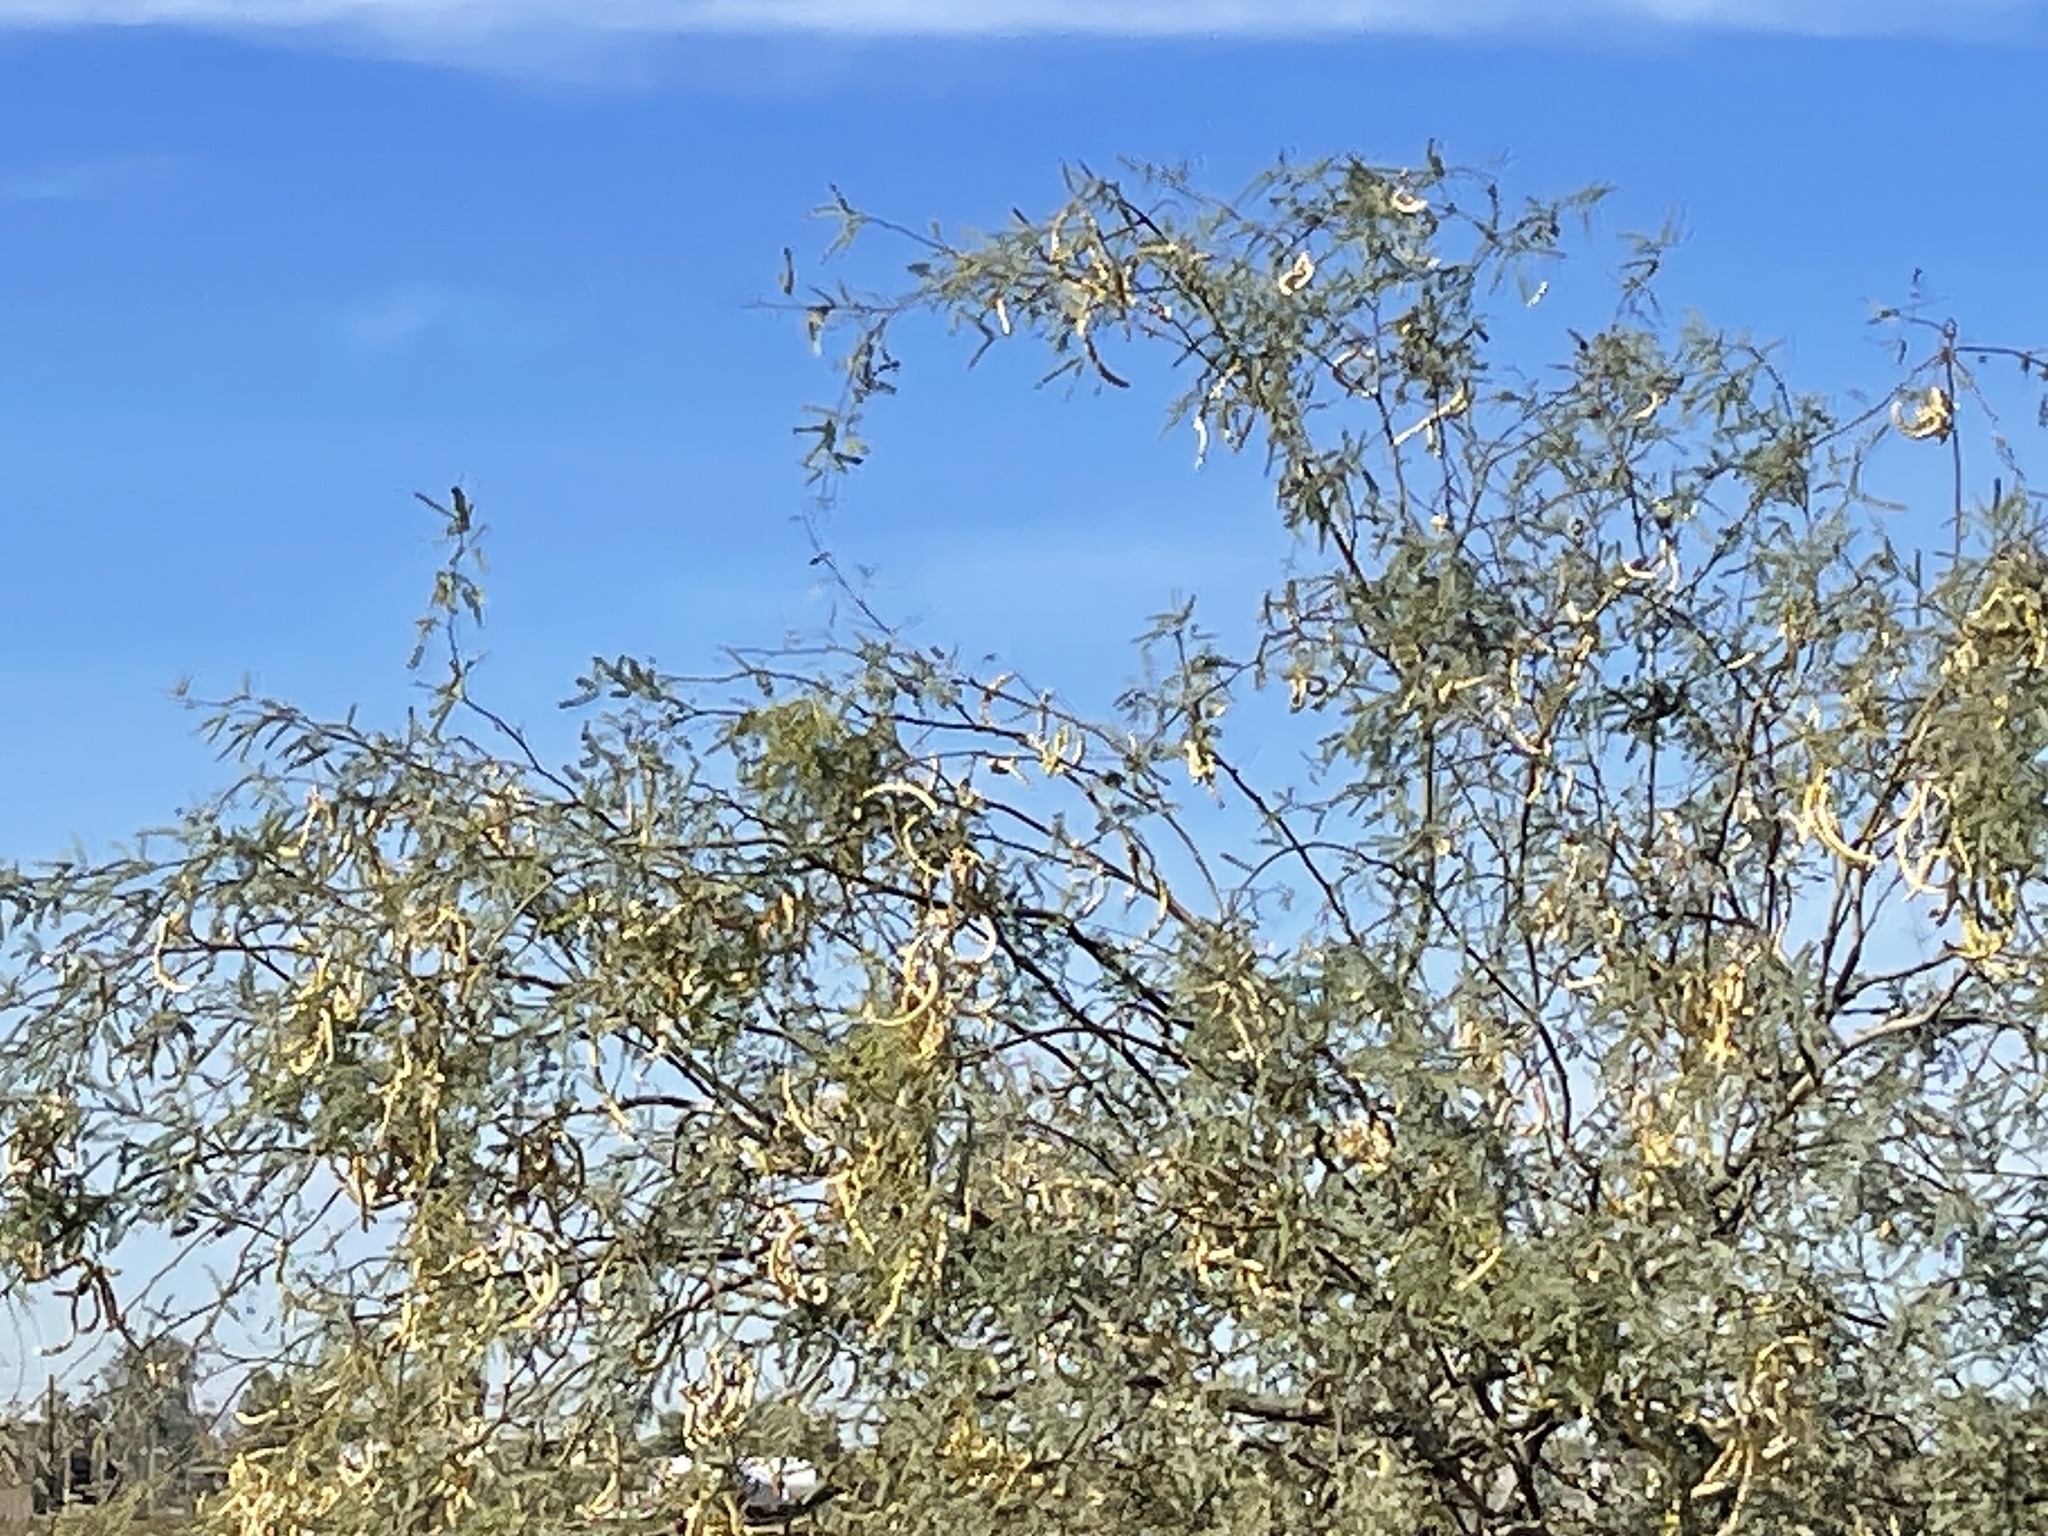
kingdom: Plantae
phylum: Tracheophyta
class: Magnoliopsida
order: Fabales
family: Fabaceae
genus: Prosopis
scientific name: Prosopis velutina
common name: Velvet mesquite
